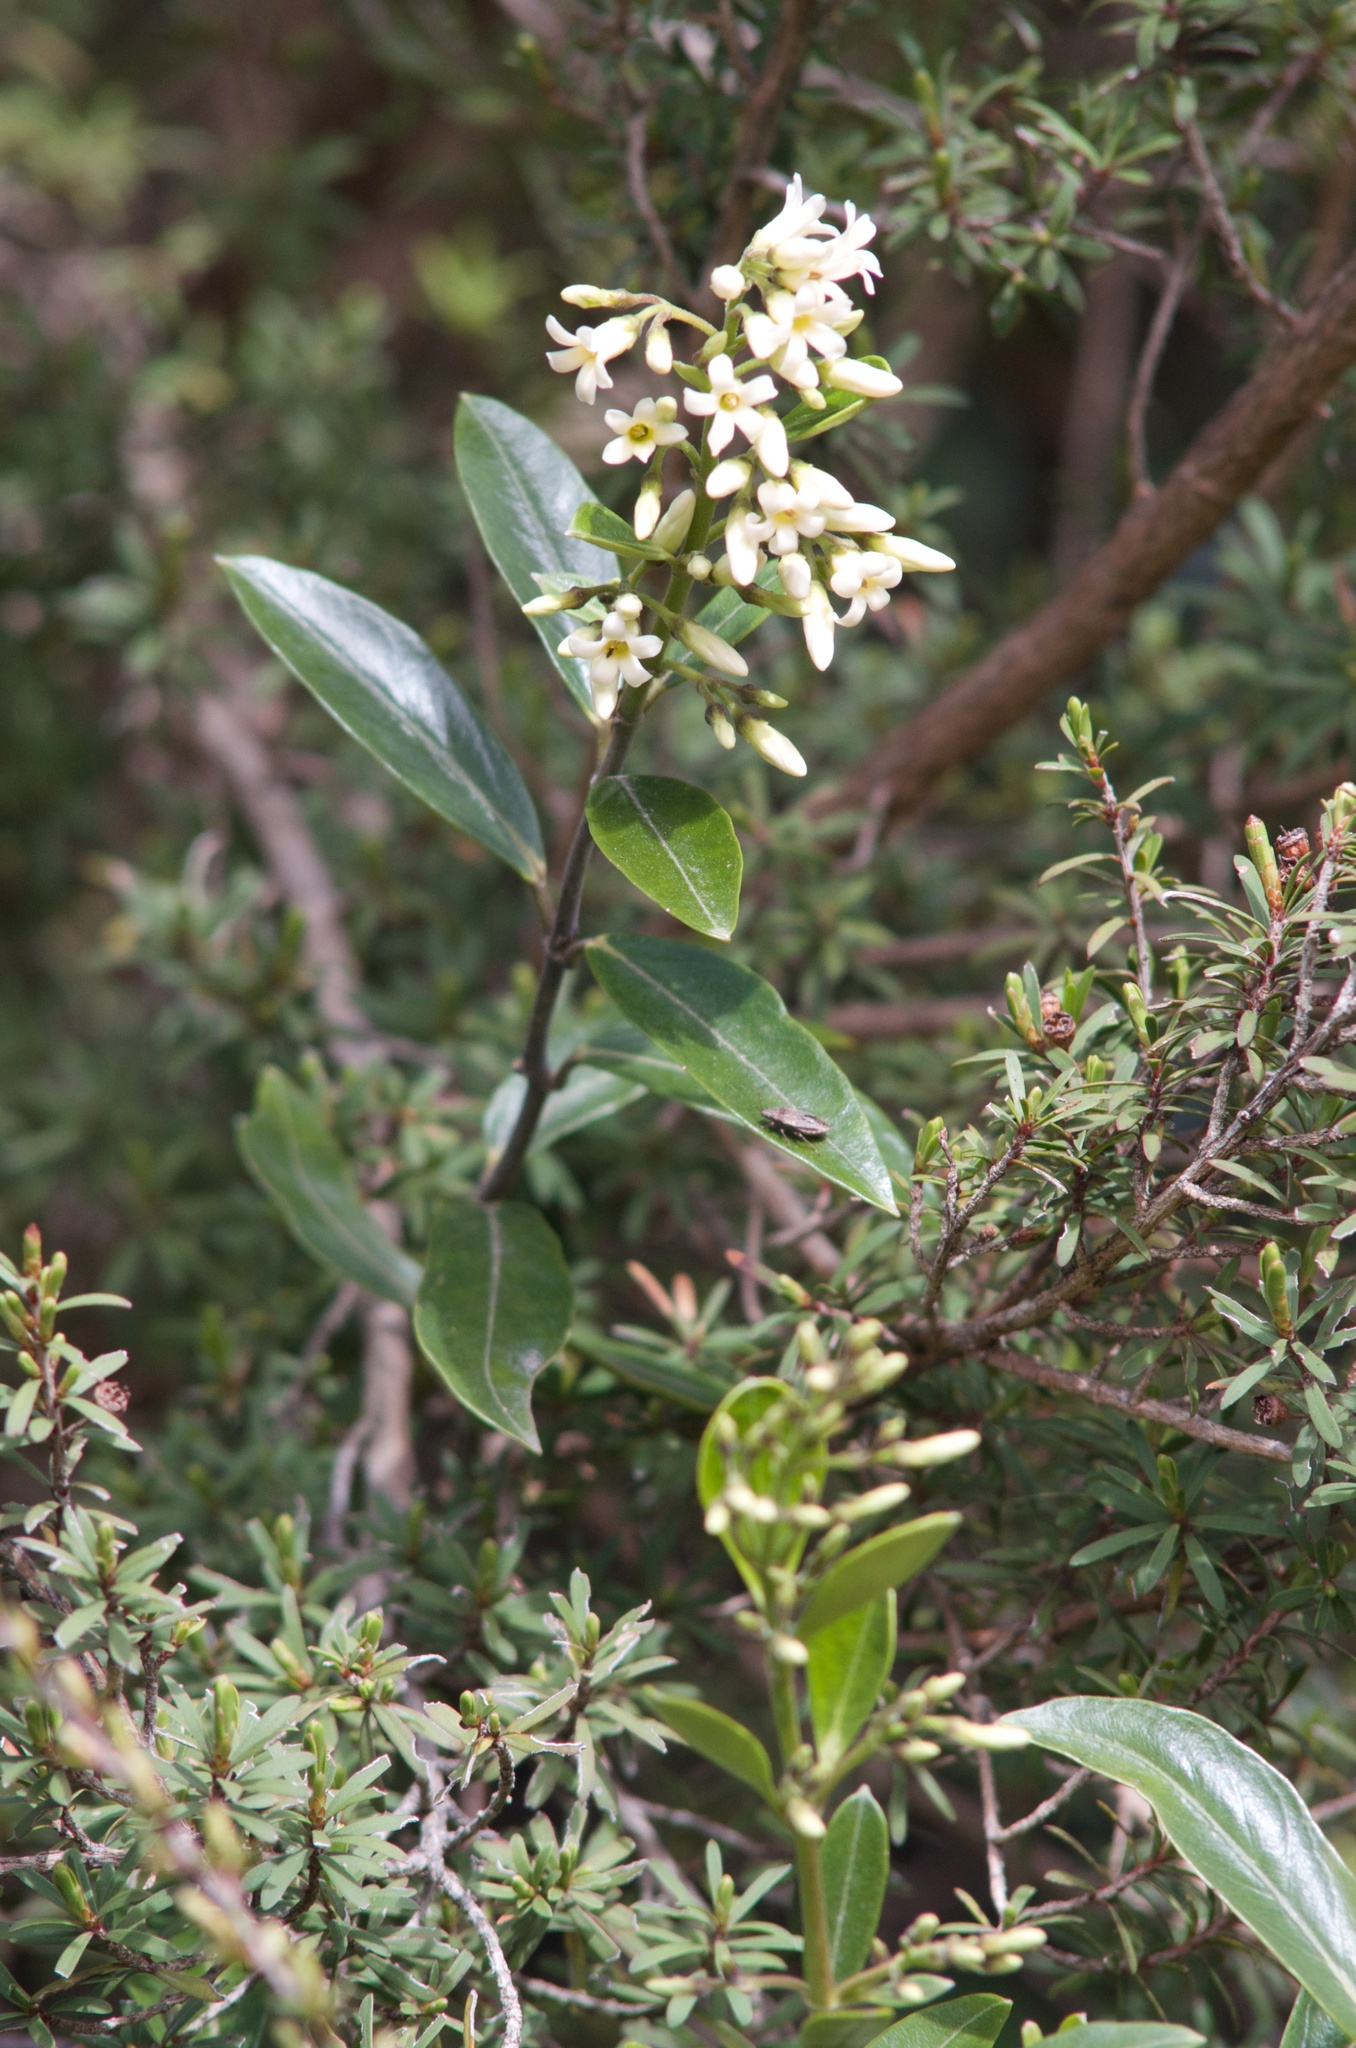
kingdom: Plantae
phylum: Tracheophyta
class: Magnoliopsida
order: Gentianales
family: Apocynaceae
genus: Parsonsia
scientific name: Parsonsia heterophylla
